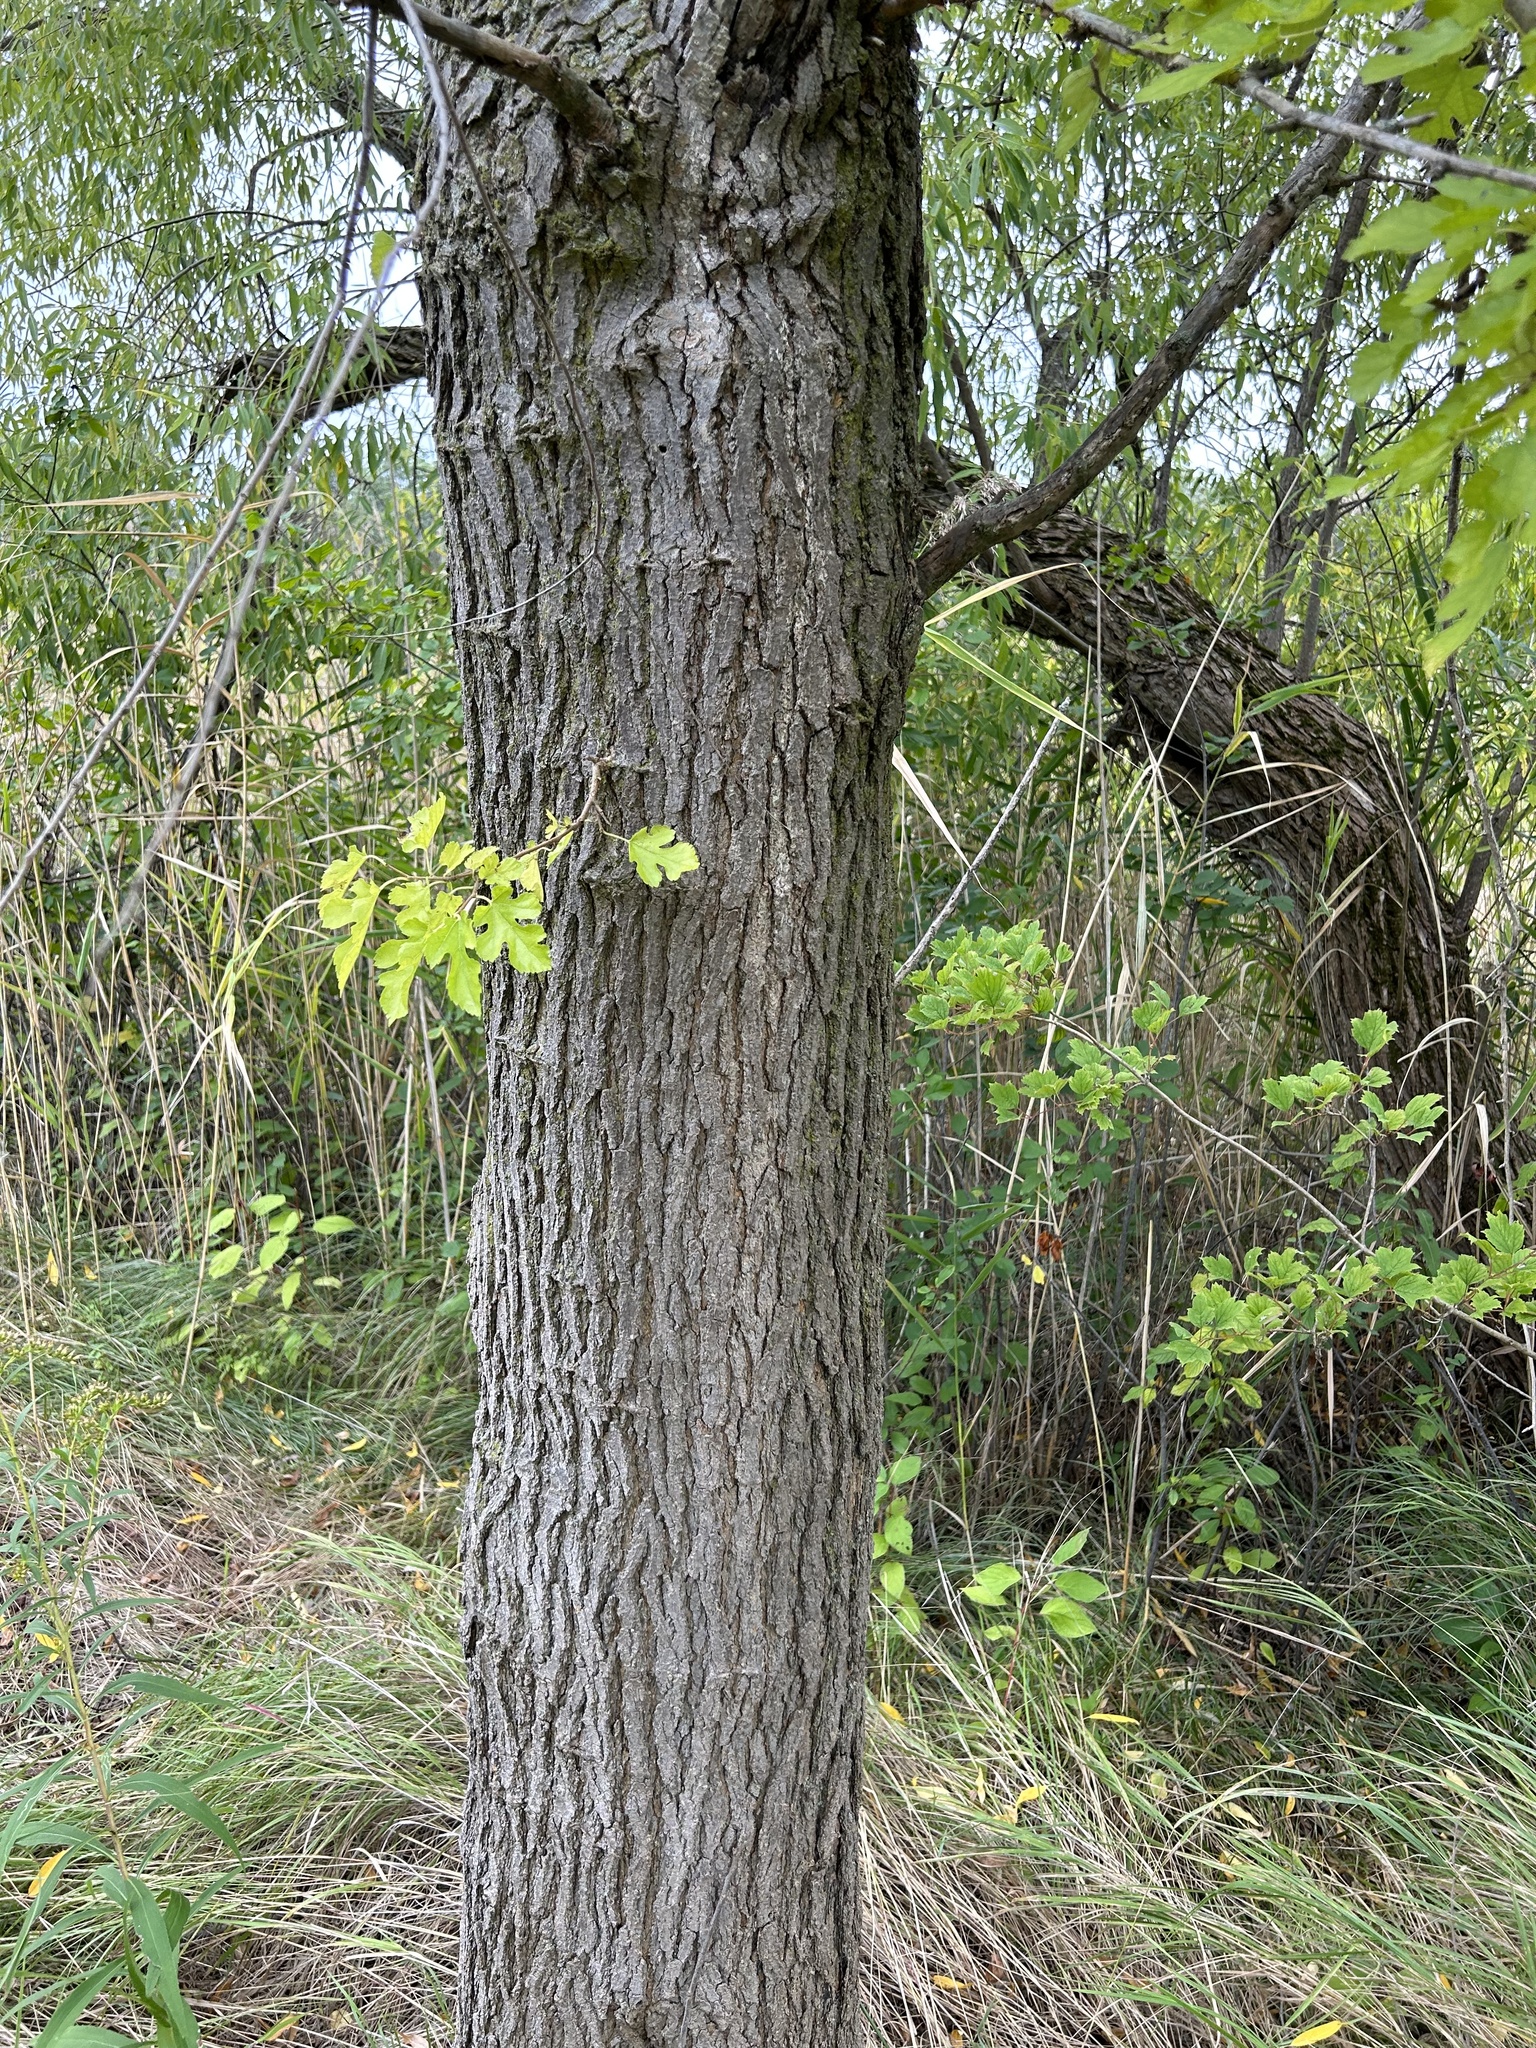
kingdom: Plantae
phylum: Tracheophyta
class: Magnoliopsida
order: Rosales
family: Moraceae
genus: Morus
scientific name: Morus alba
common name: White mulberry
